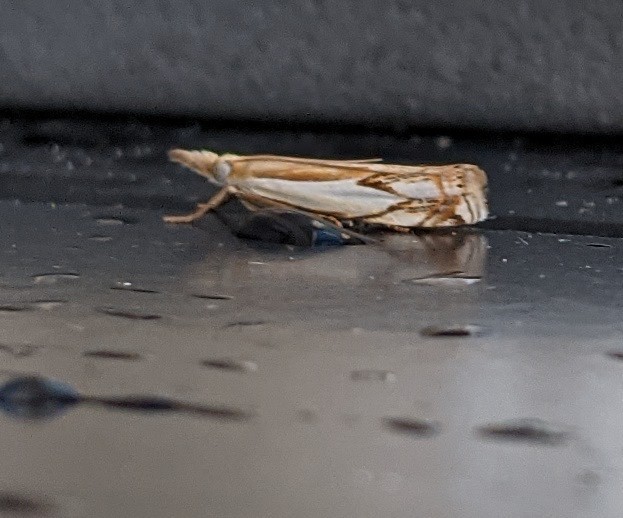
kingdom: Animalia
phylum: Arthropoda
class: Insecta
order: Lepidoptera
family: Crambidae
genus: Crambus
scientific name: Crambus agitatellus
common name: Double-banded grass-veneer
